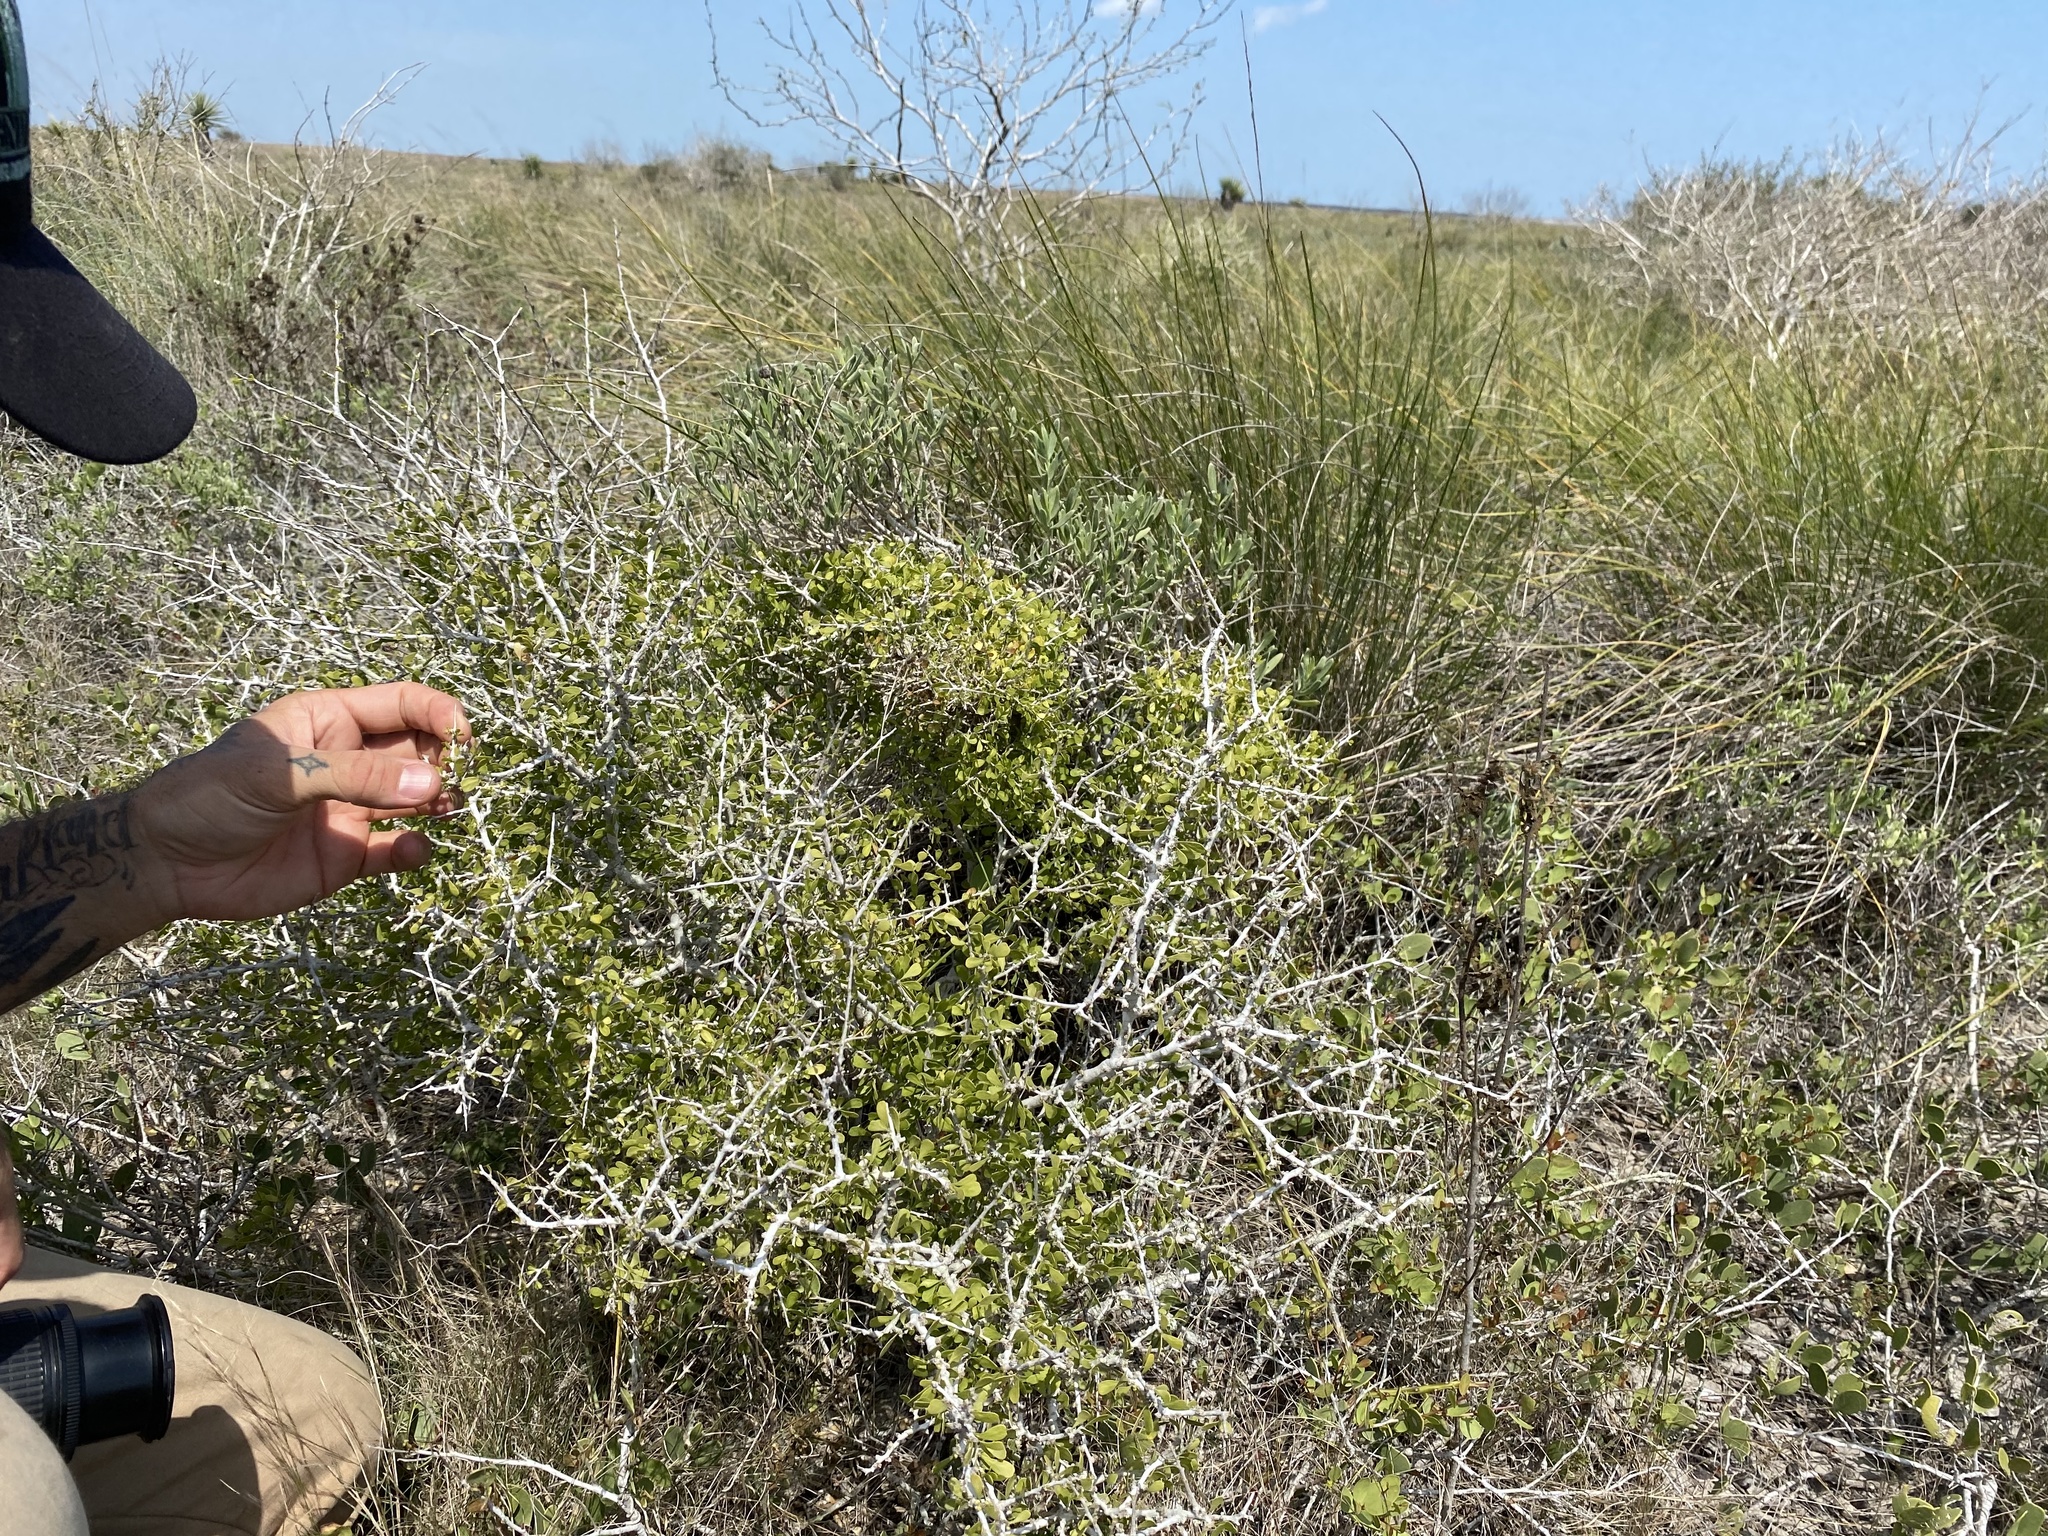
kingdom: Plantae
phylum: Tracheophyta
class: Magnoliopsida
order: Celastrales
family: Celastraceae
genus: Schaefferia
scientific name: Schaefferia cuneifolia
